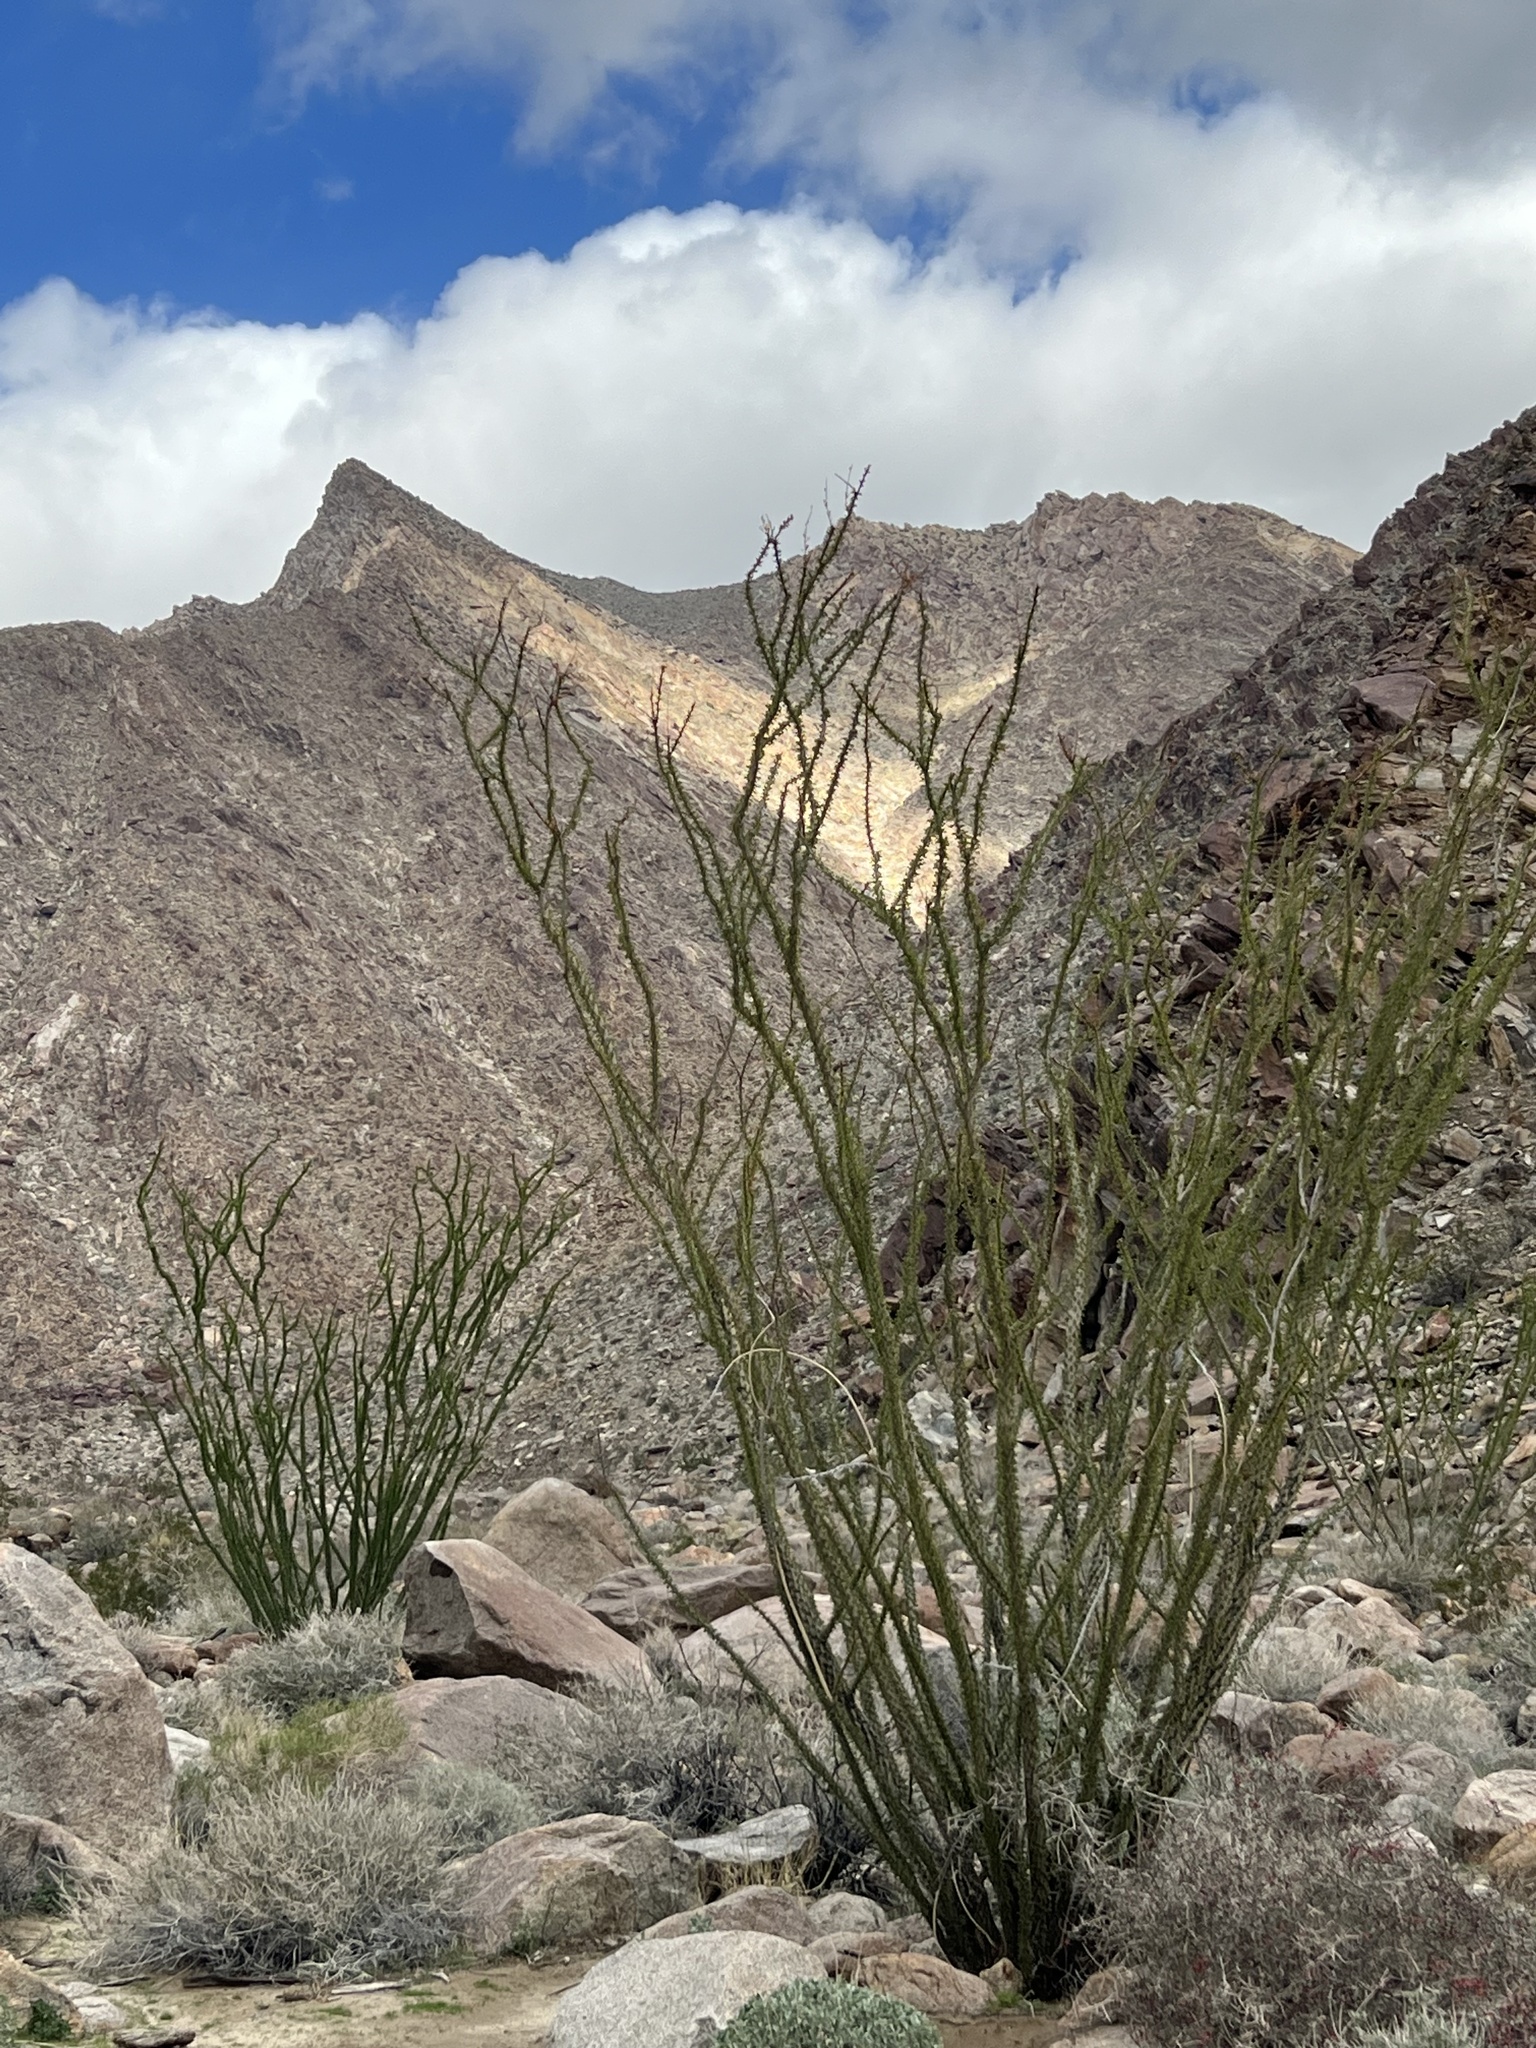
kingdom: Plantae
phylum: Tracheophyta
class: Magnoliopsida
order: Ericales
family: Fouquieriaceae
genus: Fouquieria
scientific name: Fouquieria splendens
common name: Vine-cactus
